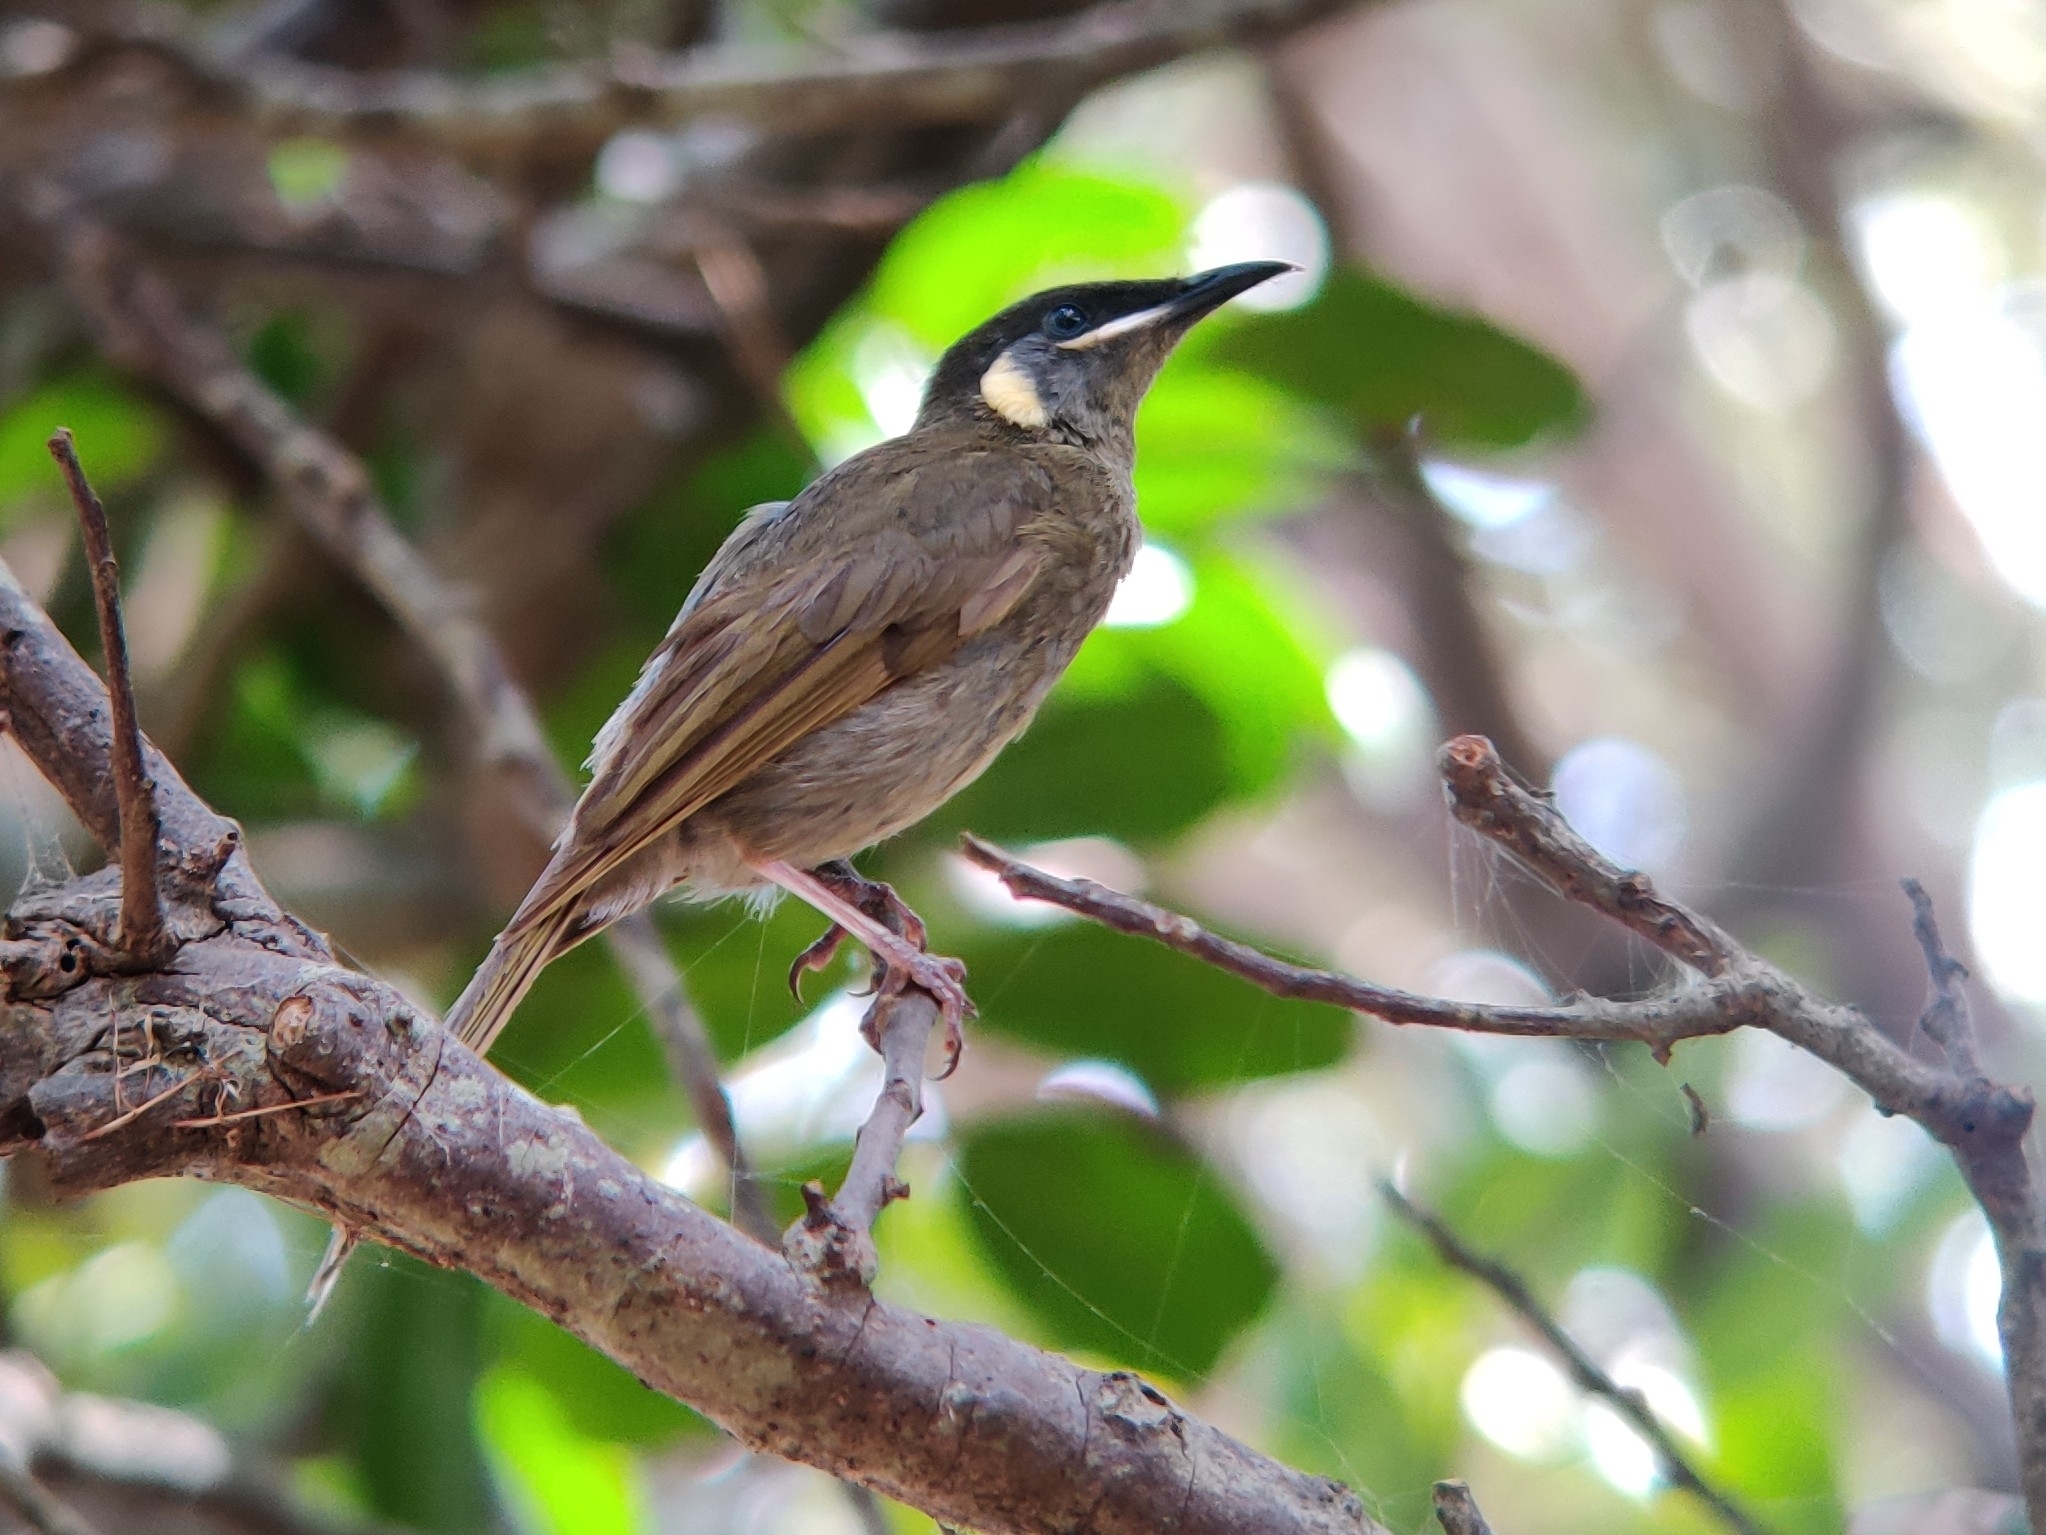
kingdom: Animalia
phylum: Chordata
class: Aves
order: Passeriformes
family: Meliphagidae
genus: Meliphaga
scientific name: Meliphaga lewinii
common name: Lewin's honeyeater
